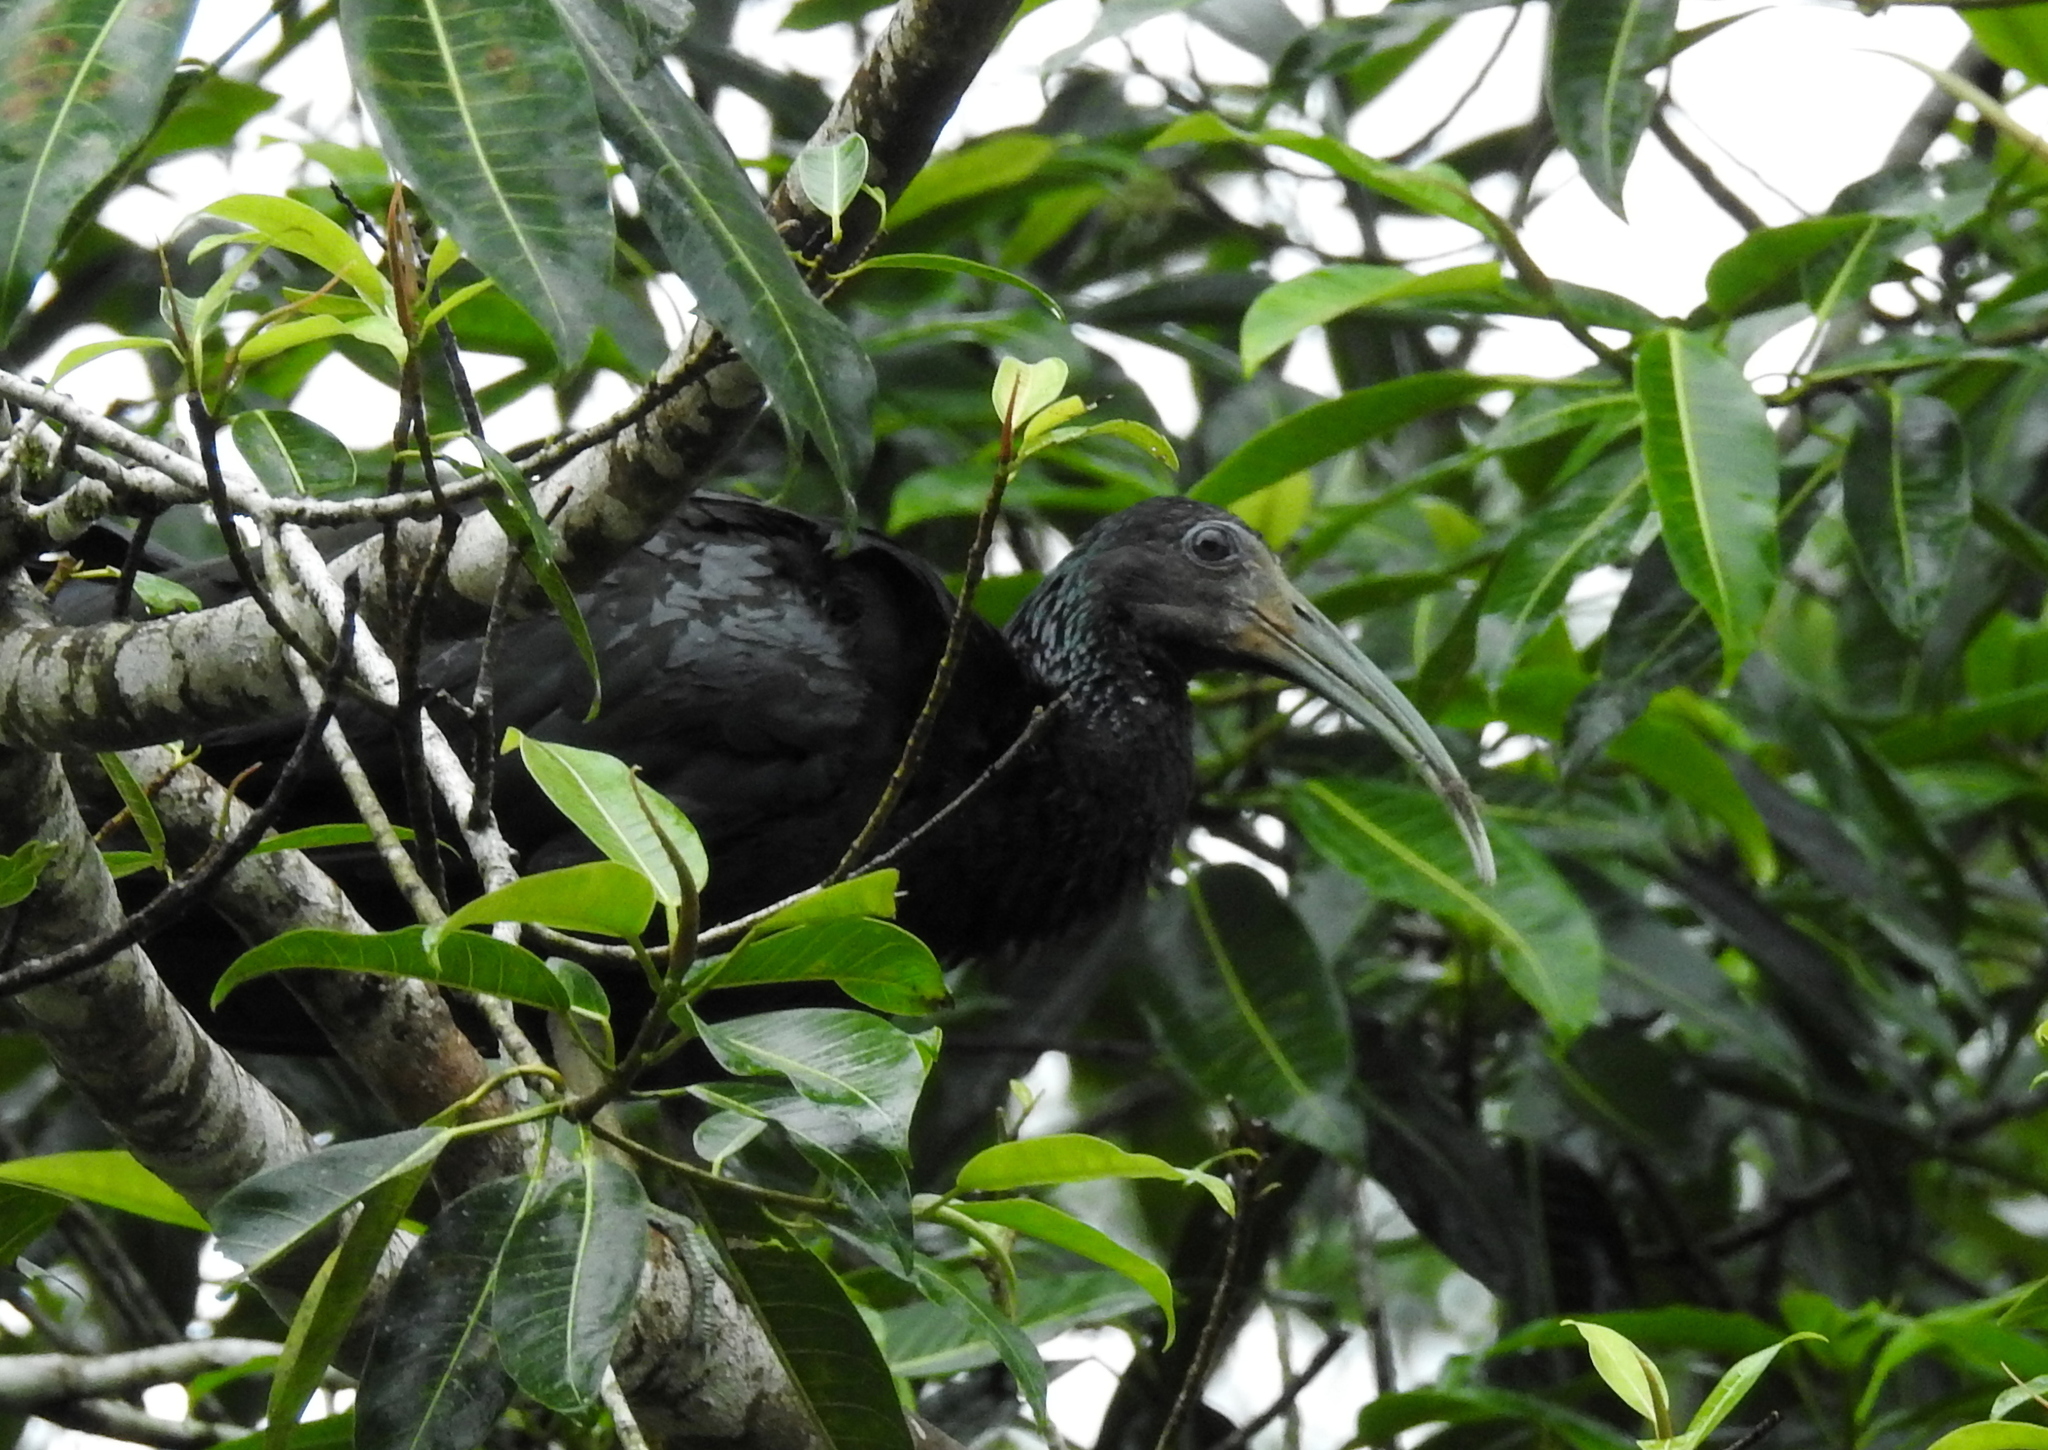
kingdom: Animalia
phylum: Chordata
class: Aves
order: Pelecaniformes
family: Threskiornithidae
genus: Mesembrinibis
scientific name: Mesembrinibis cayennensis
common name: Green ibis
